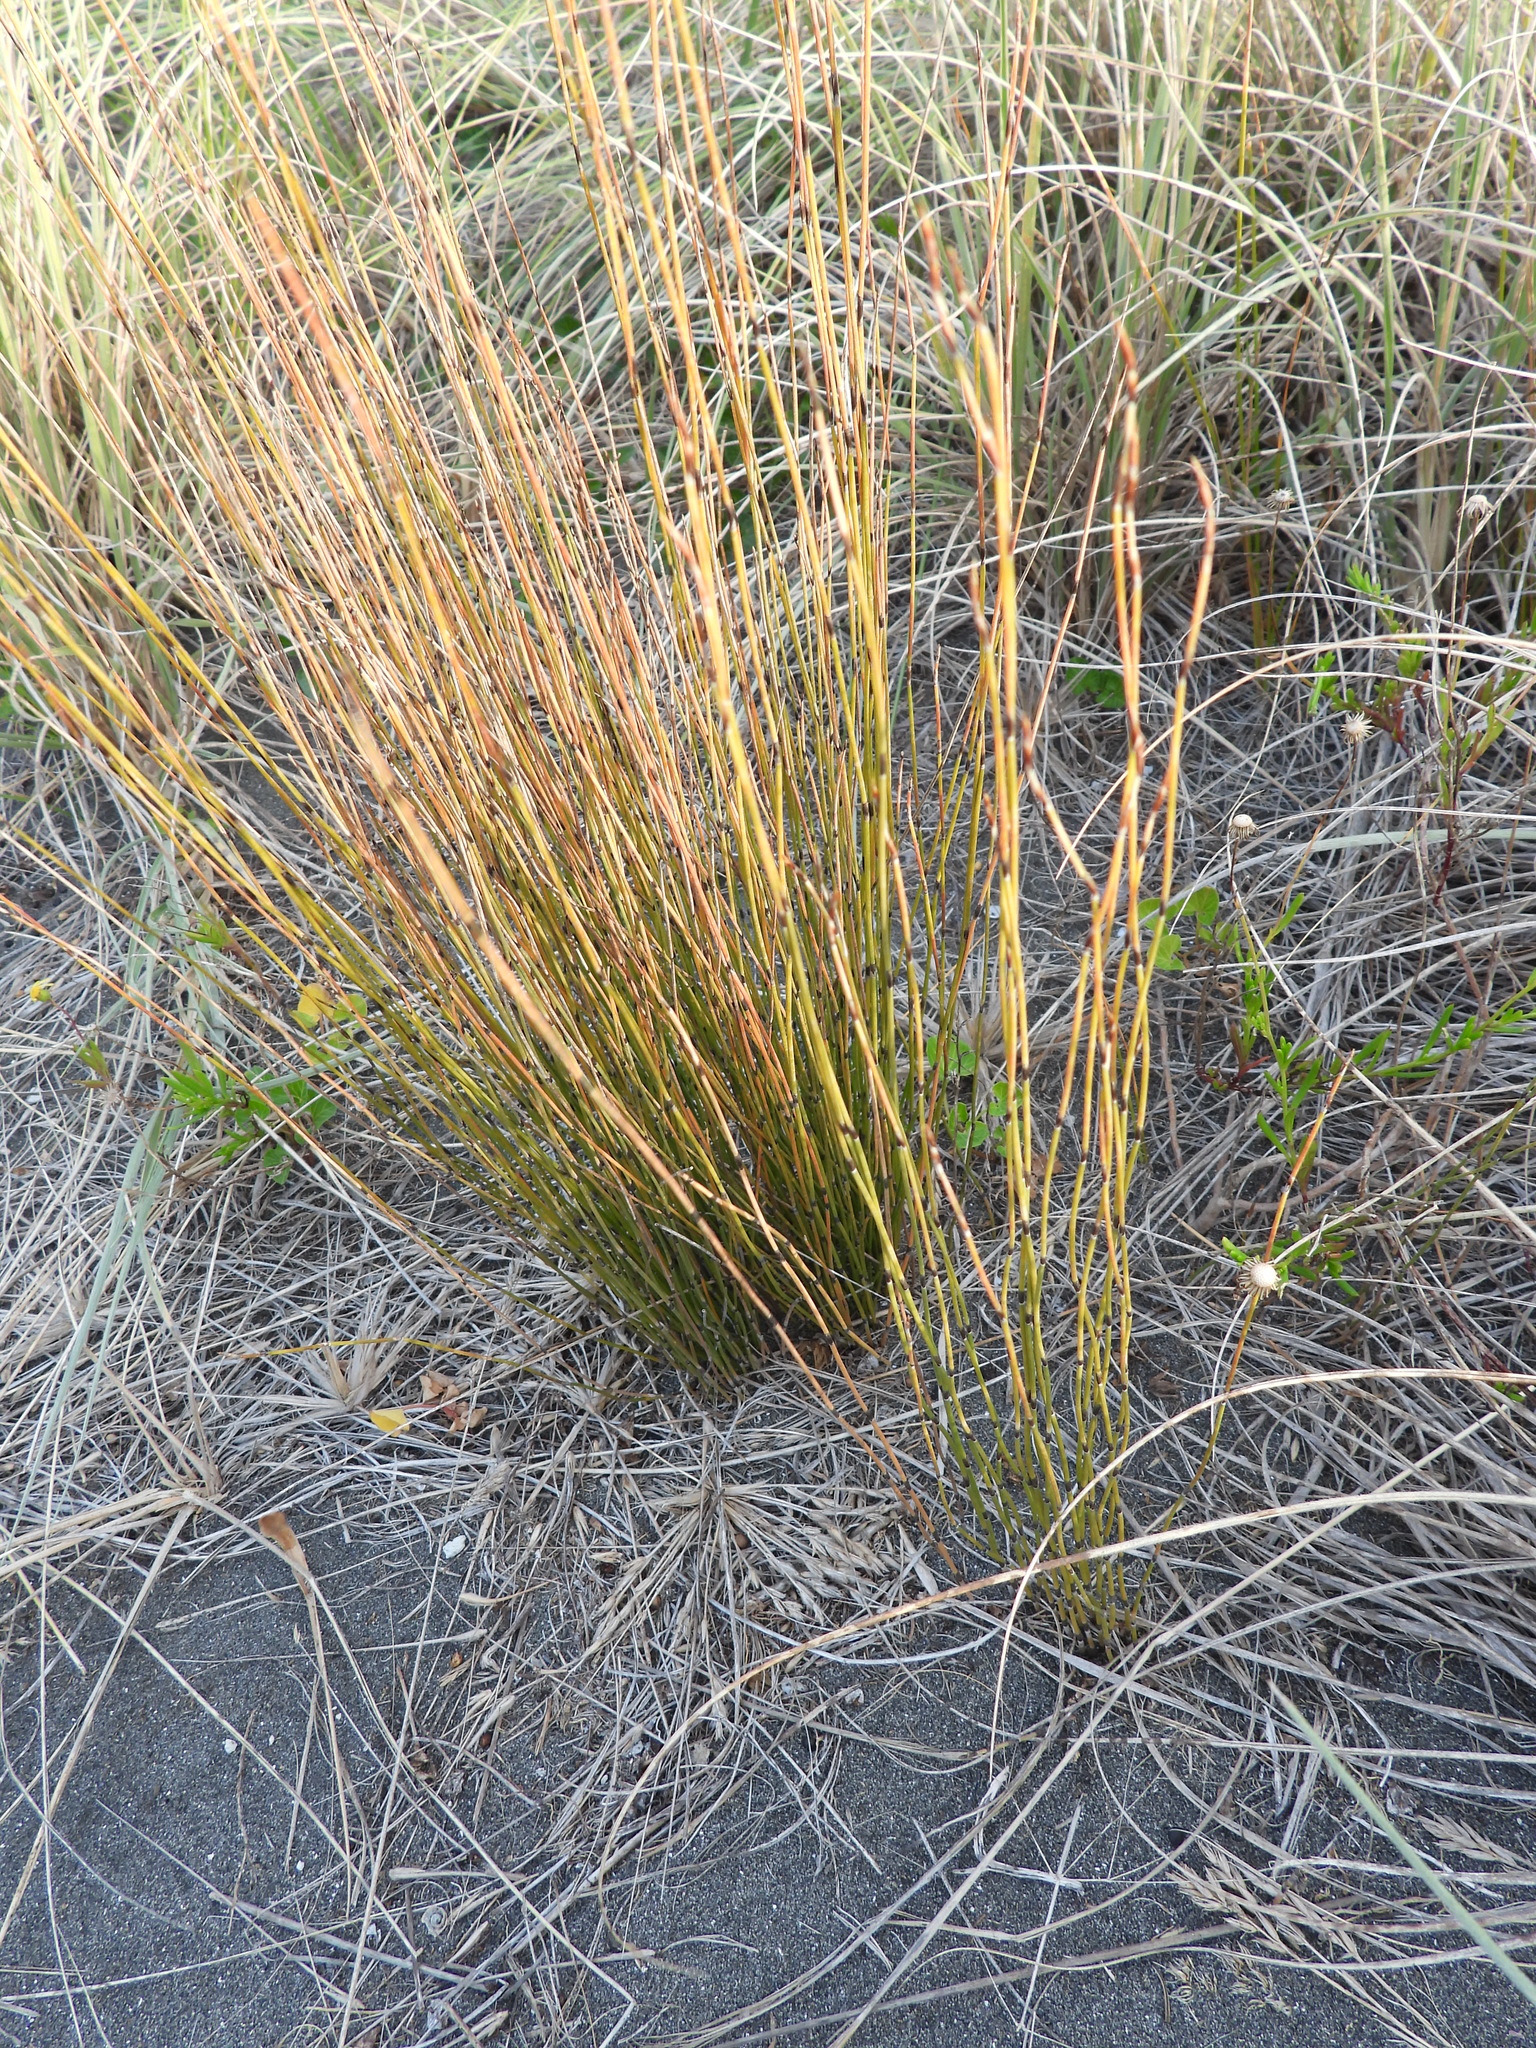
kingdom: Plantae
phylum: Tracheophyta
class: Liliopsida
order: Poales
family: Restionaceae
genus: Apodasmia
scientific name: Apodasmia similis
